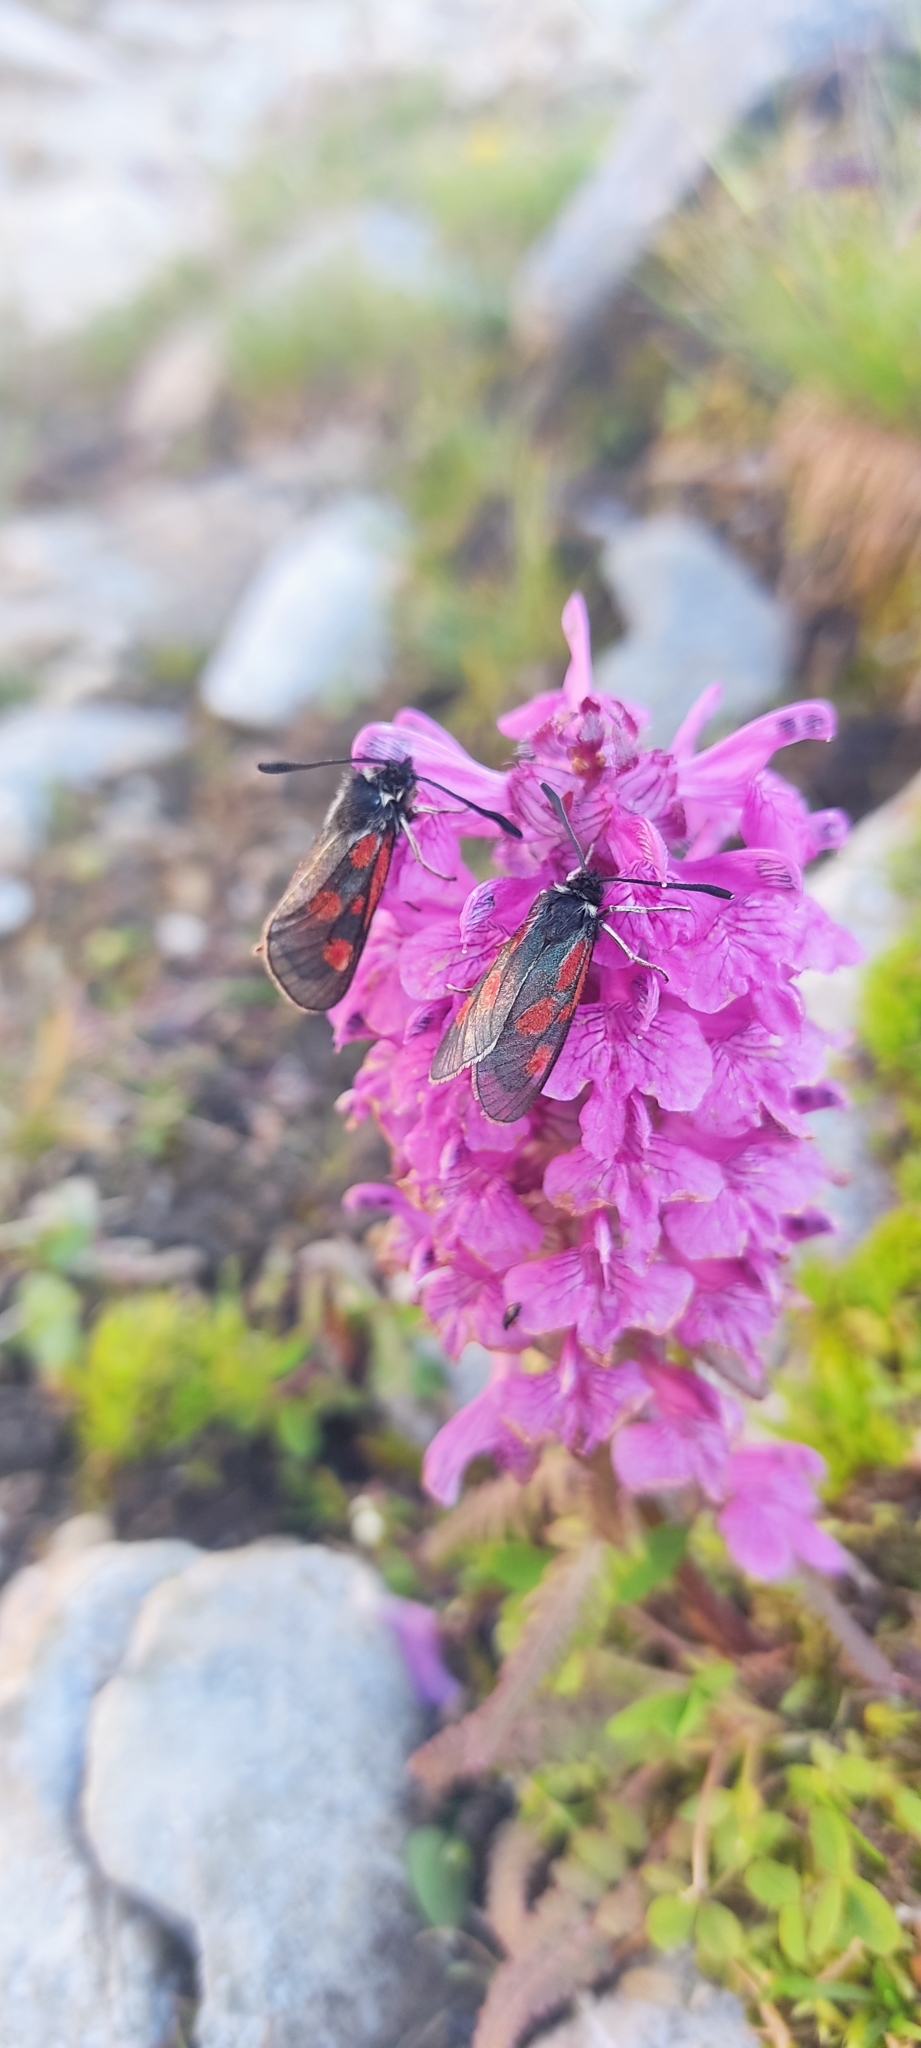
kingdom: Animalia
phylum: Arthropoda
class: Insecta
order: Lepidoptera
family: Zygaenidae
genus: Zygaena
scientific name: Zygaena exulans
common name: Scotch burnet
